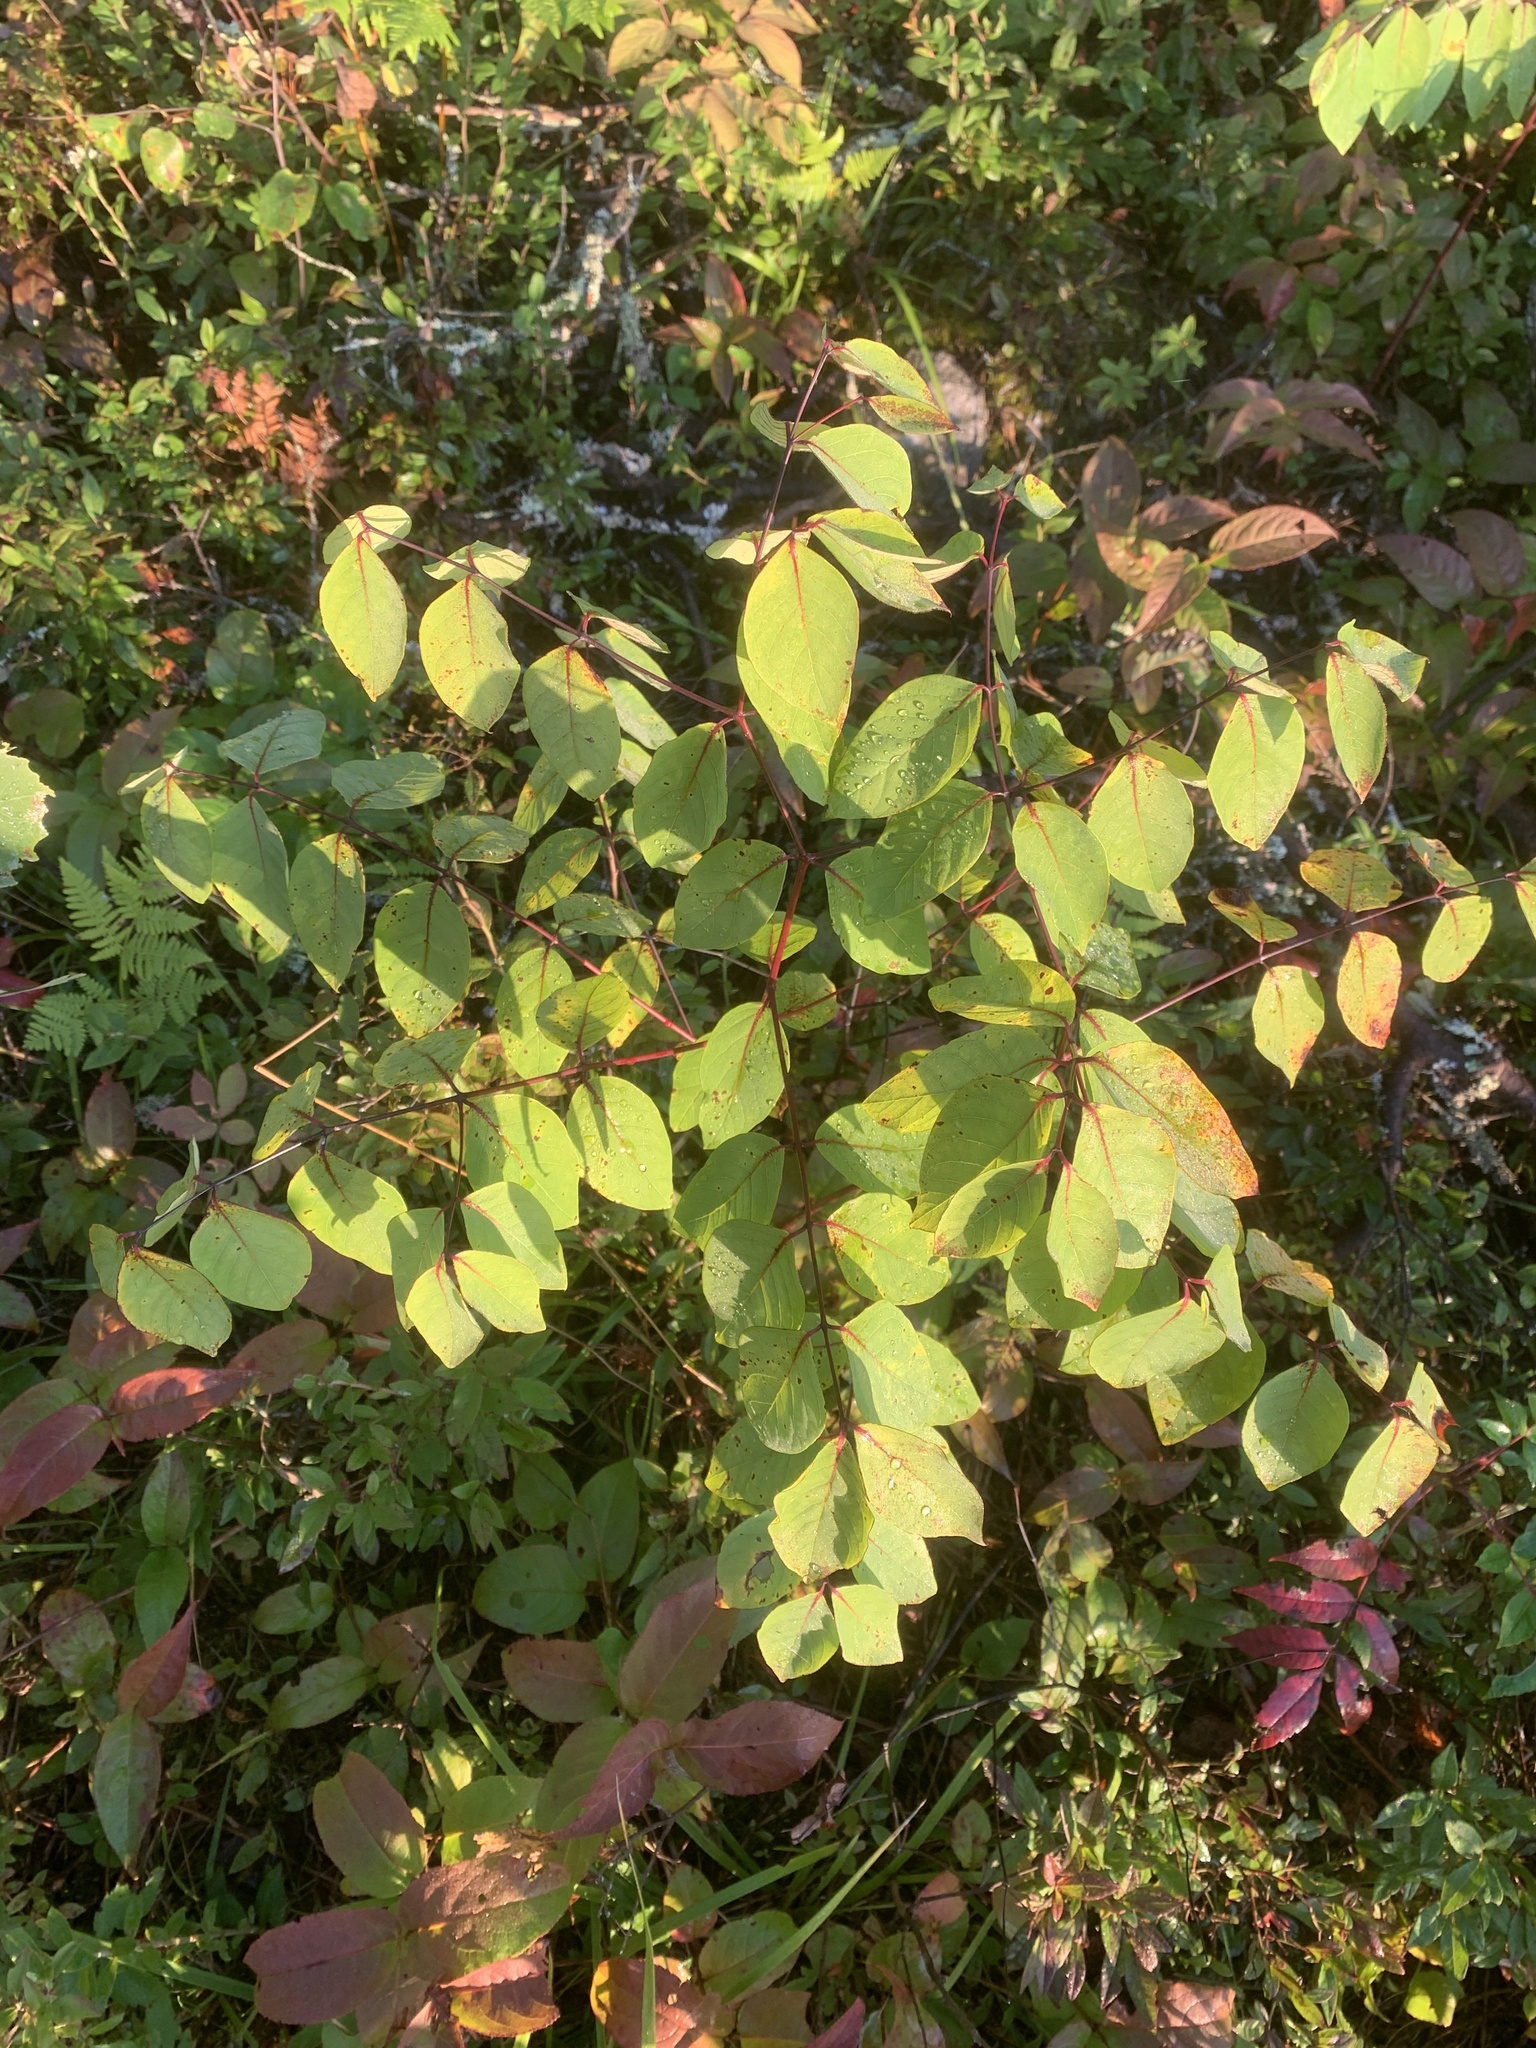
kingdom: Plantae
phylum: Tracheophyta
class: Magnoliopsida
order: Gentianales
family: Apocynaceae
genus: Apocynum
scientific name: Apocynum androsaemifolium
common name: Spreading dogbane
